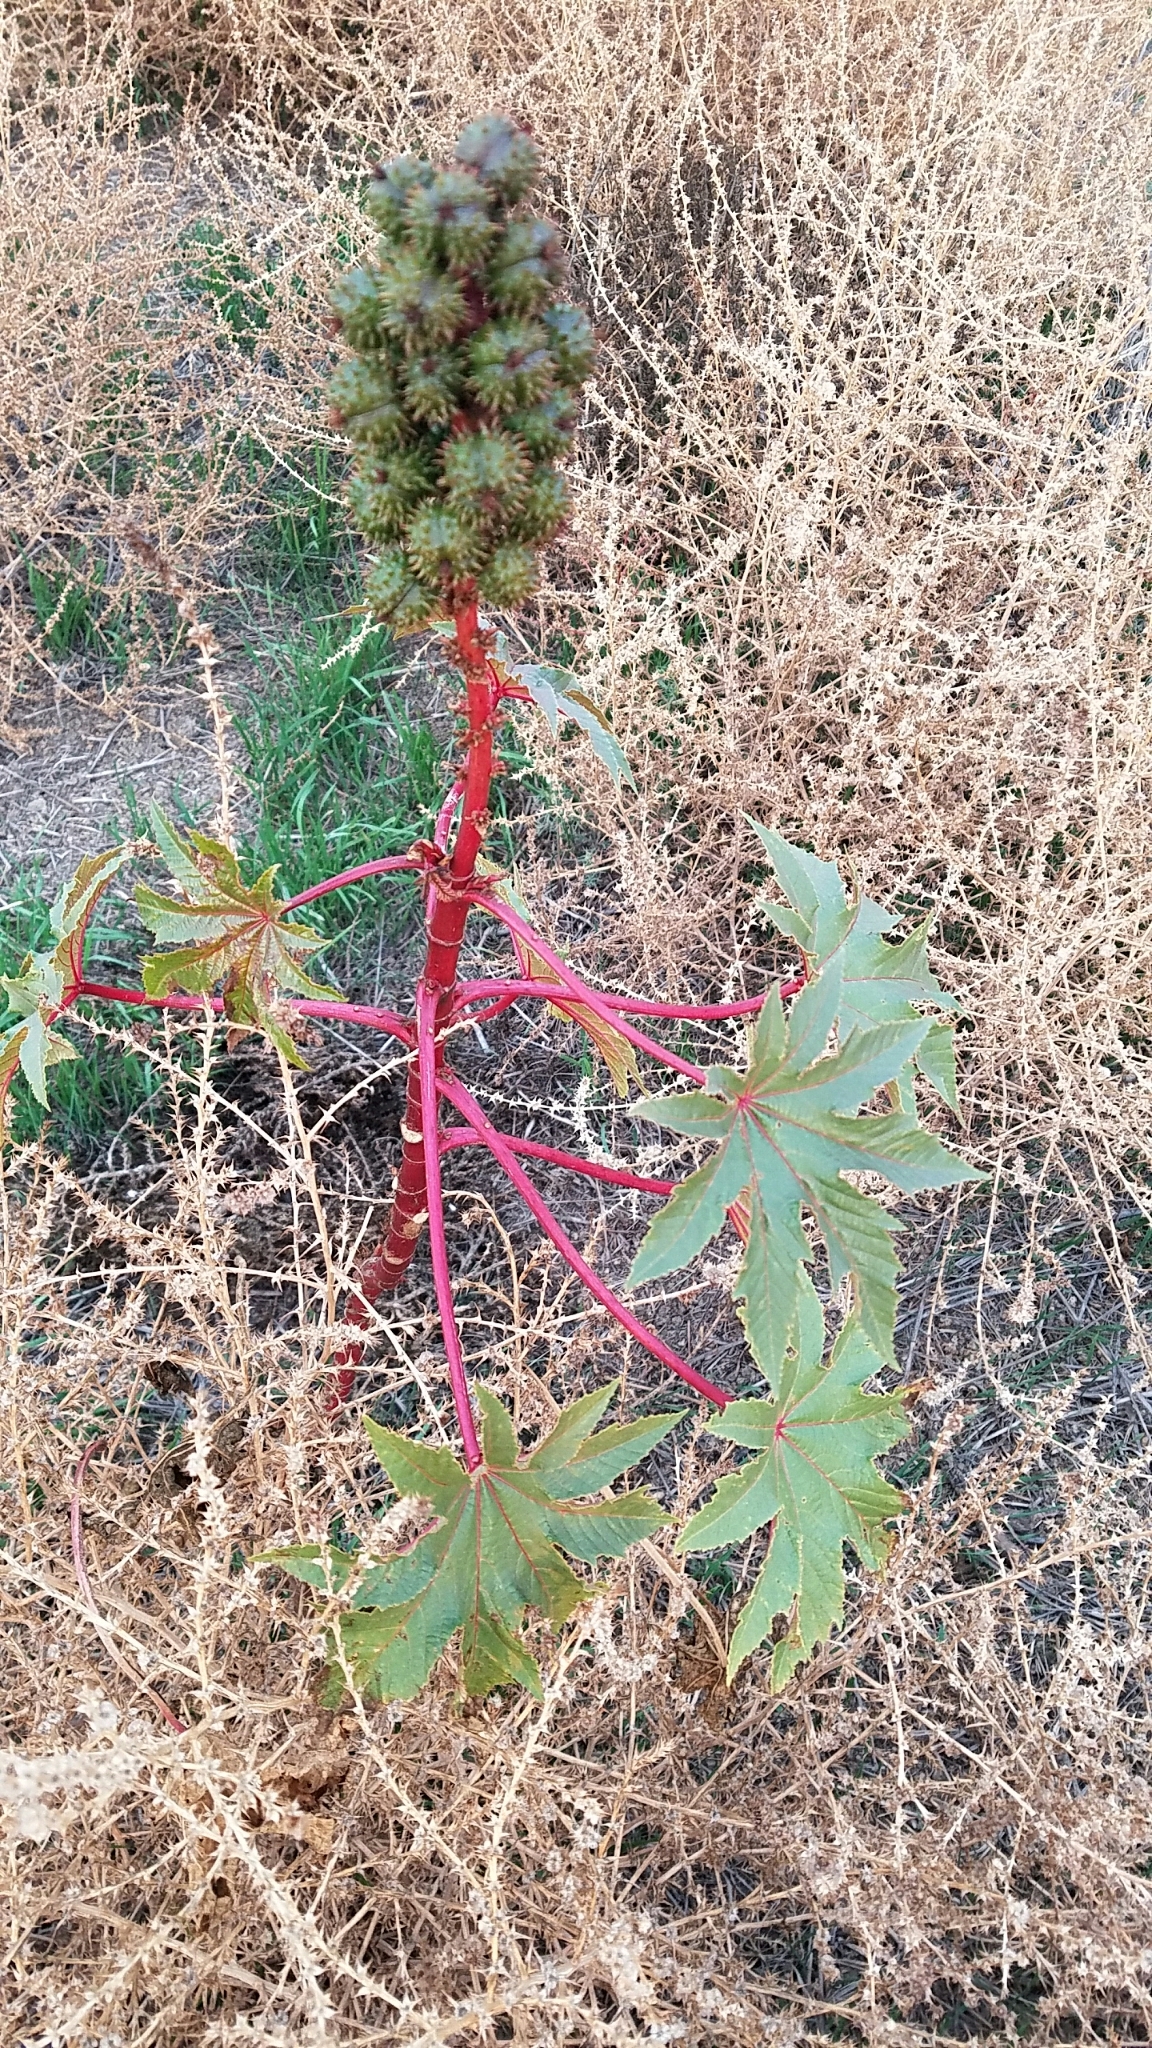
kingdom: Plantae
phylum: Tracheophyta
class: Magnoliopsida
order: Malpighiales
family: Euphorbiaceae
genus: Ricinus
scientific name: Ricinus communis
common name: Castor-oil-plant
